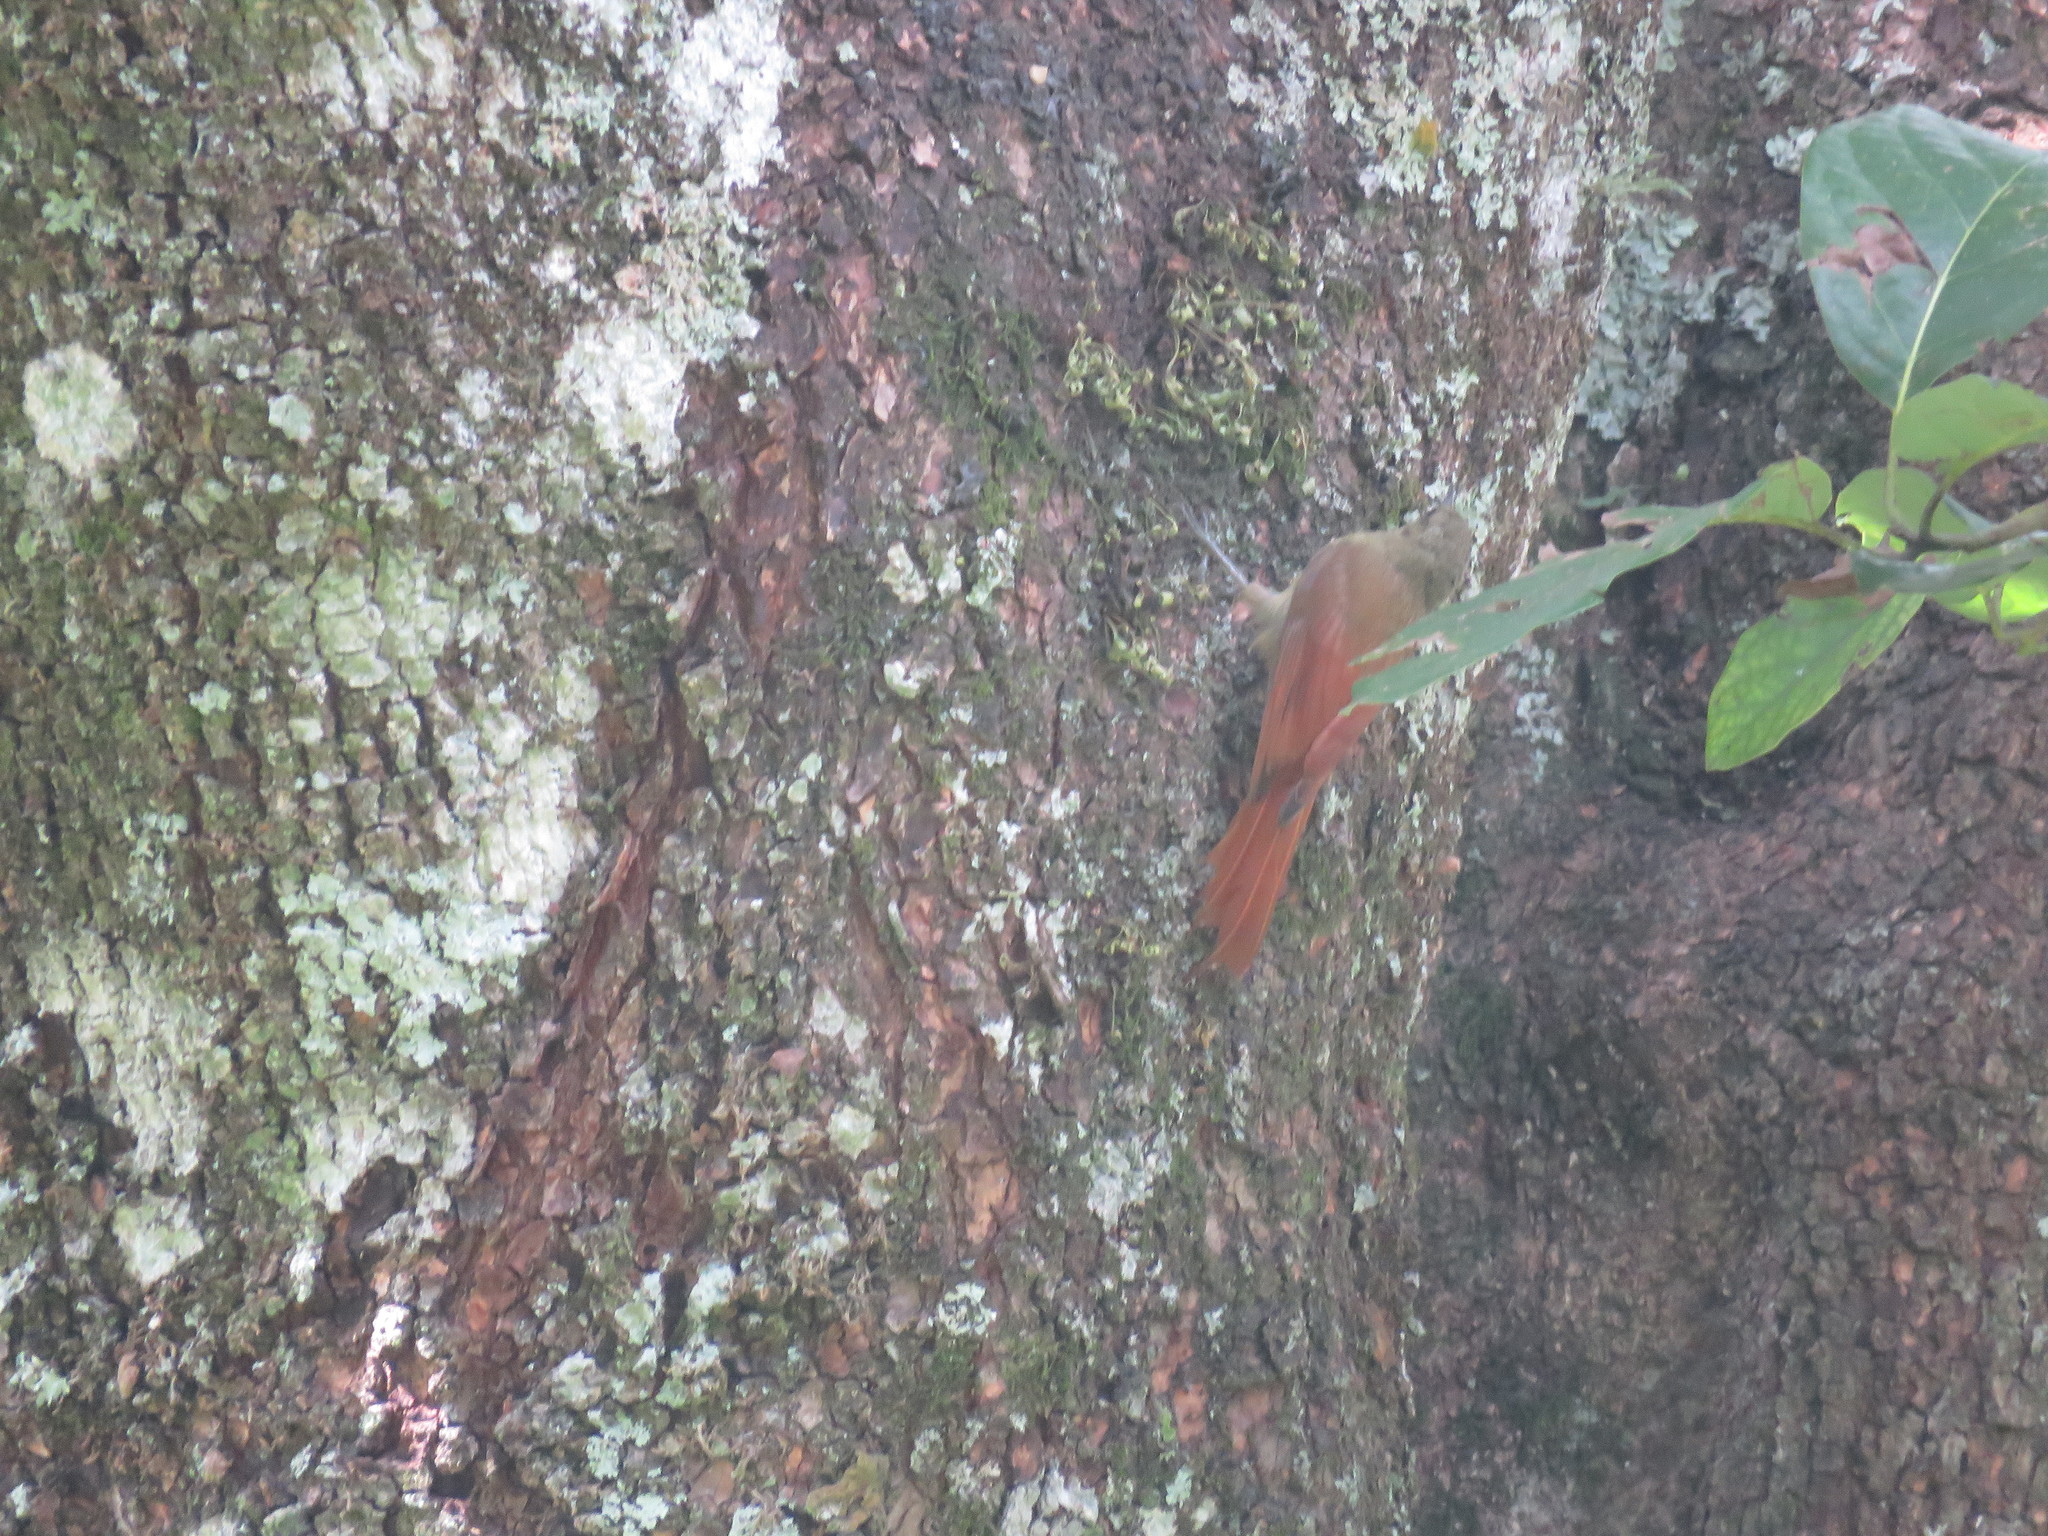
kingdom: Animalia
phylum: Chordata
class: Aves
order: Passeriformes
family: Furnariidae
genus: Sittasomus
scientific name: Sittasomus griseicapillus
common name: Olivaceous woodcreeper
